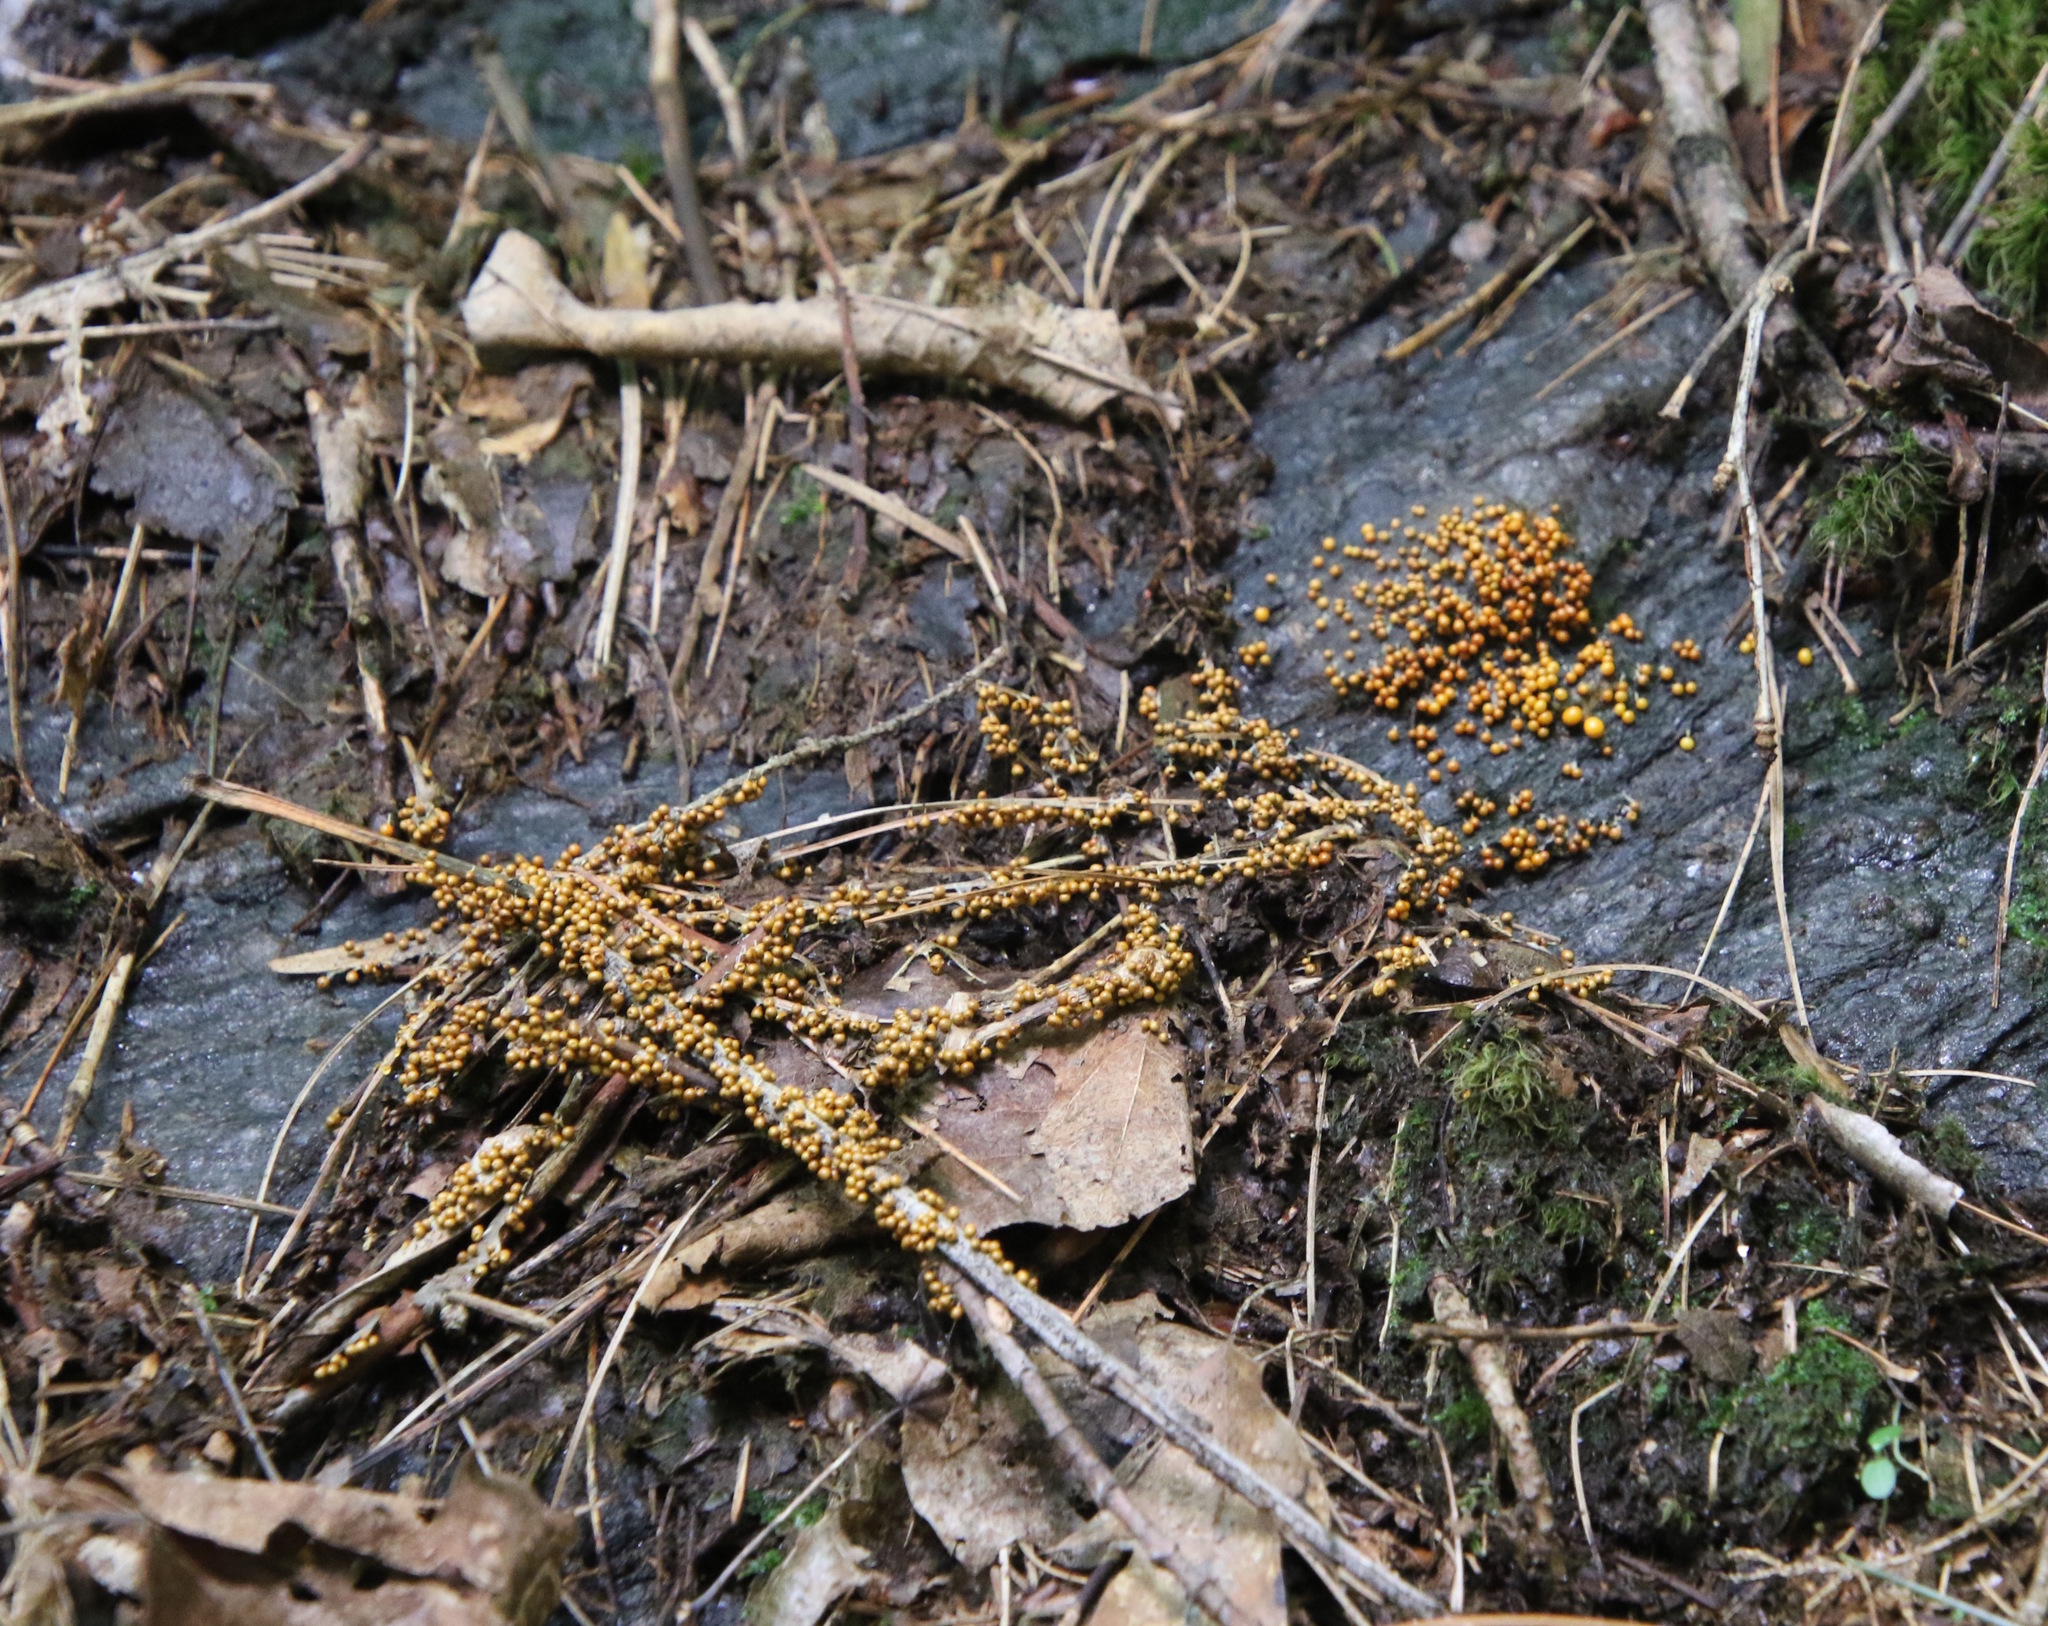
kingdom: Protozoa
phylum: Mycetozoa
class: Myxomycetes
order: Physarales
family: Physaraceae
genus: Leocarpus
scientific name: Leocarpus fragilis
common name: Insect-egg slime
